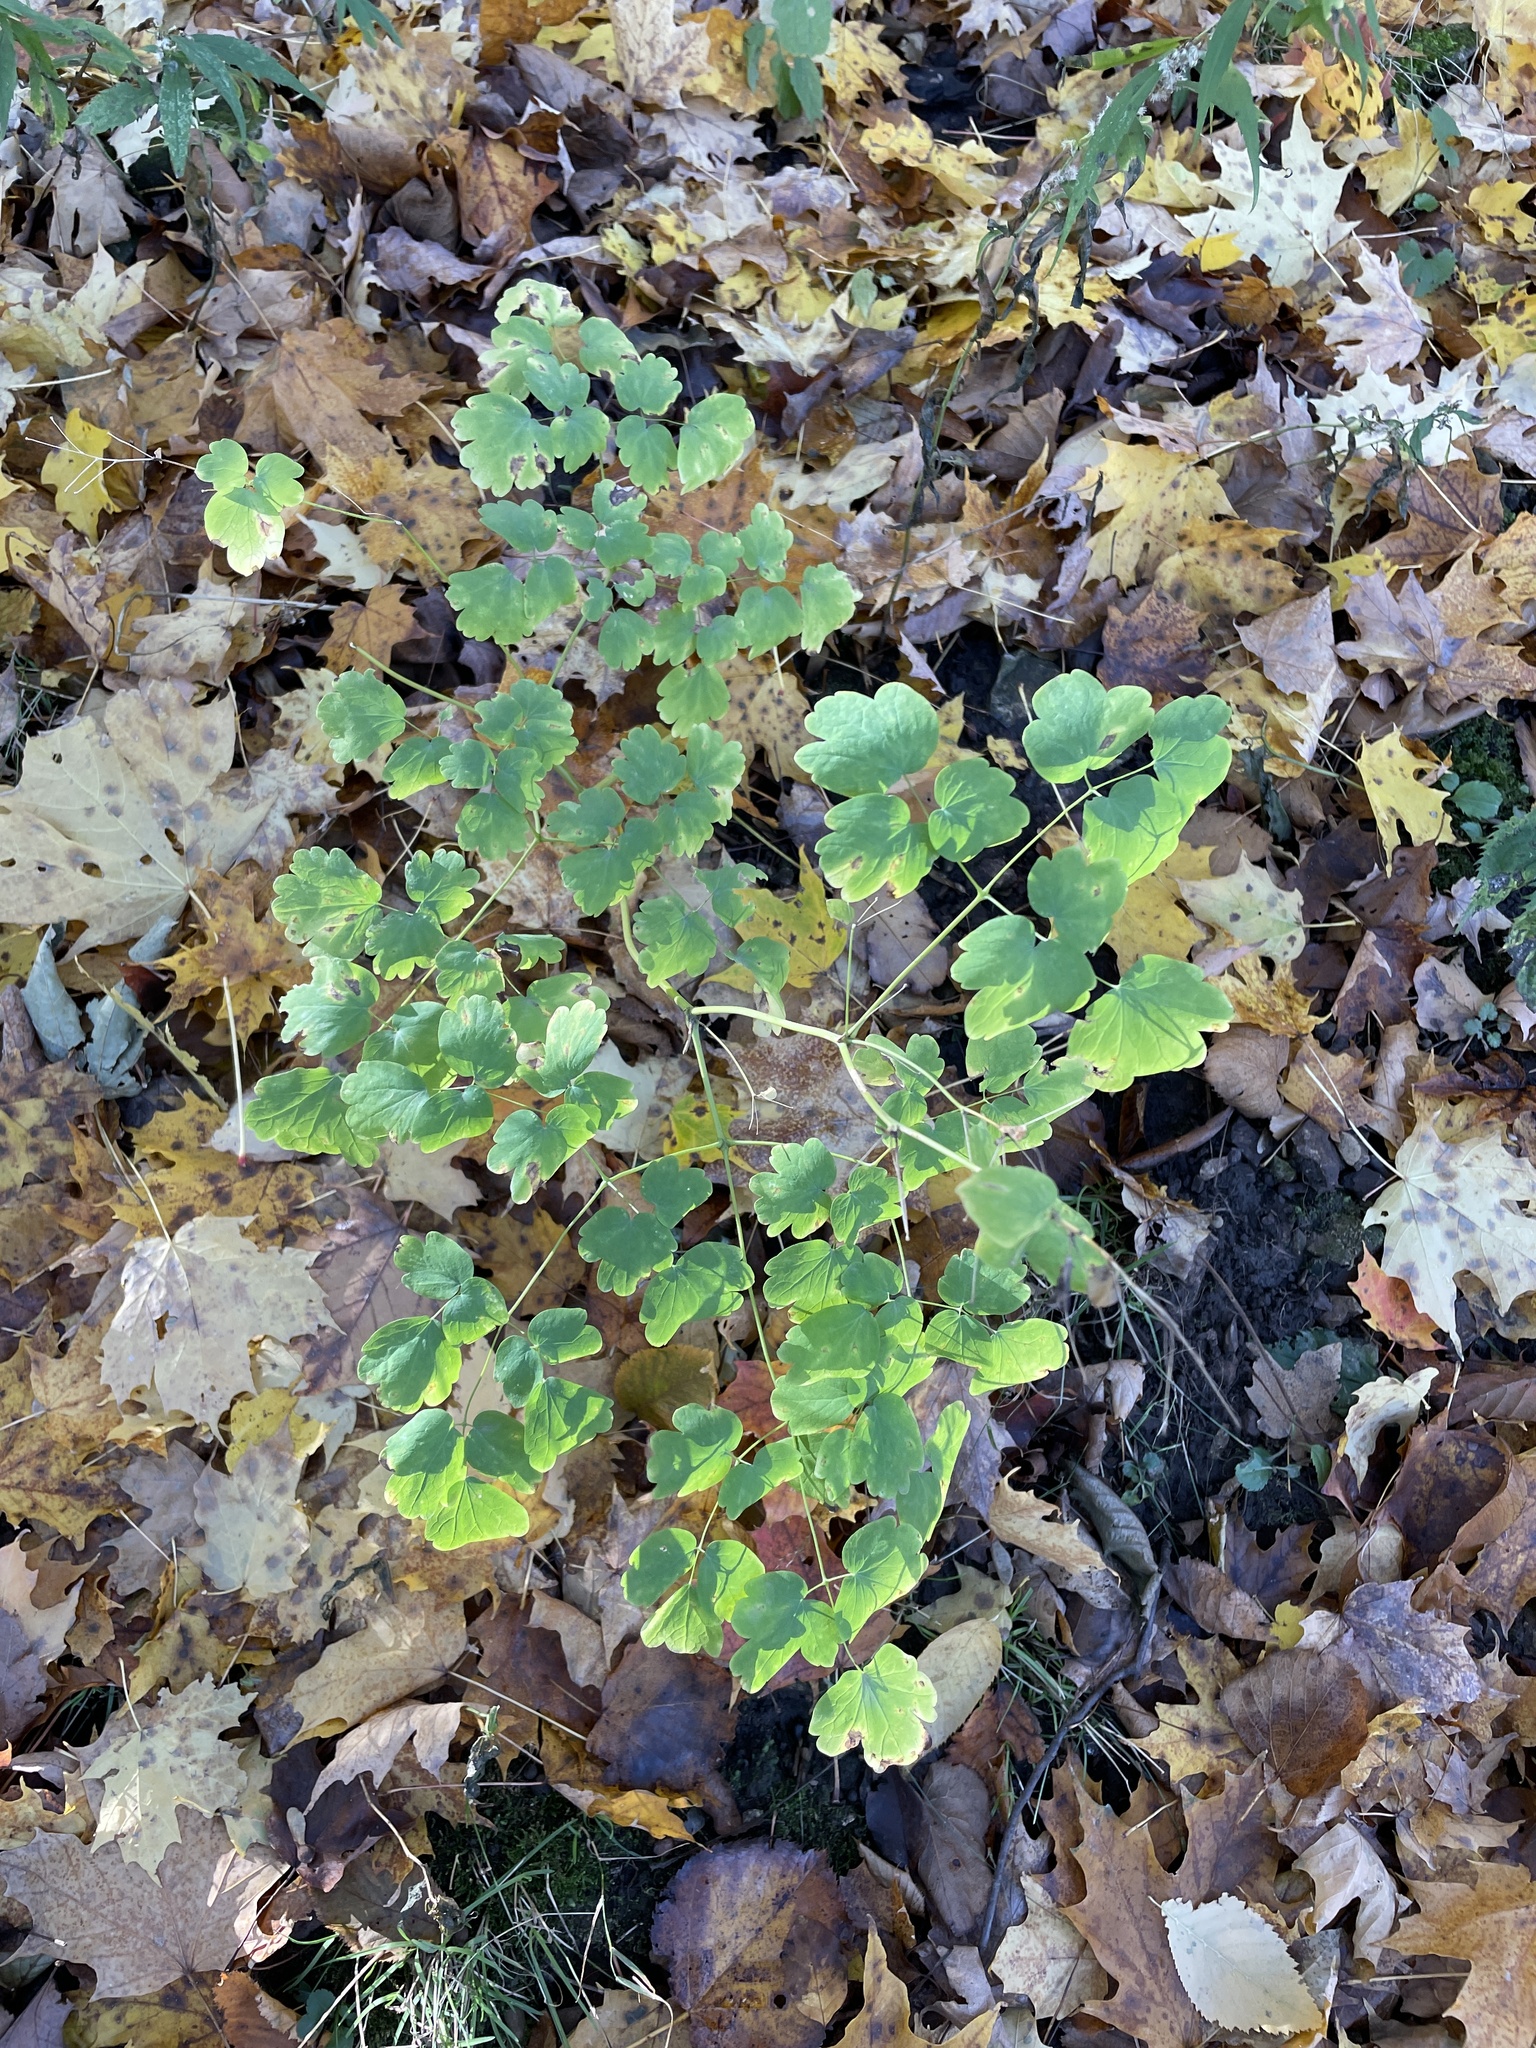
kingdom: Plantae
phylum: Tracheophyta
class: Magnoliopsida
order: Ranunculales
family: Ranunculaceae
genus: Thalictrum
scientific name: Thalictrum dioicum
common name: Early meadow-rue
